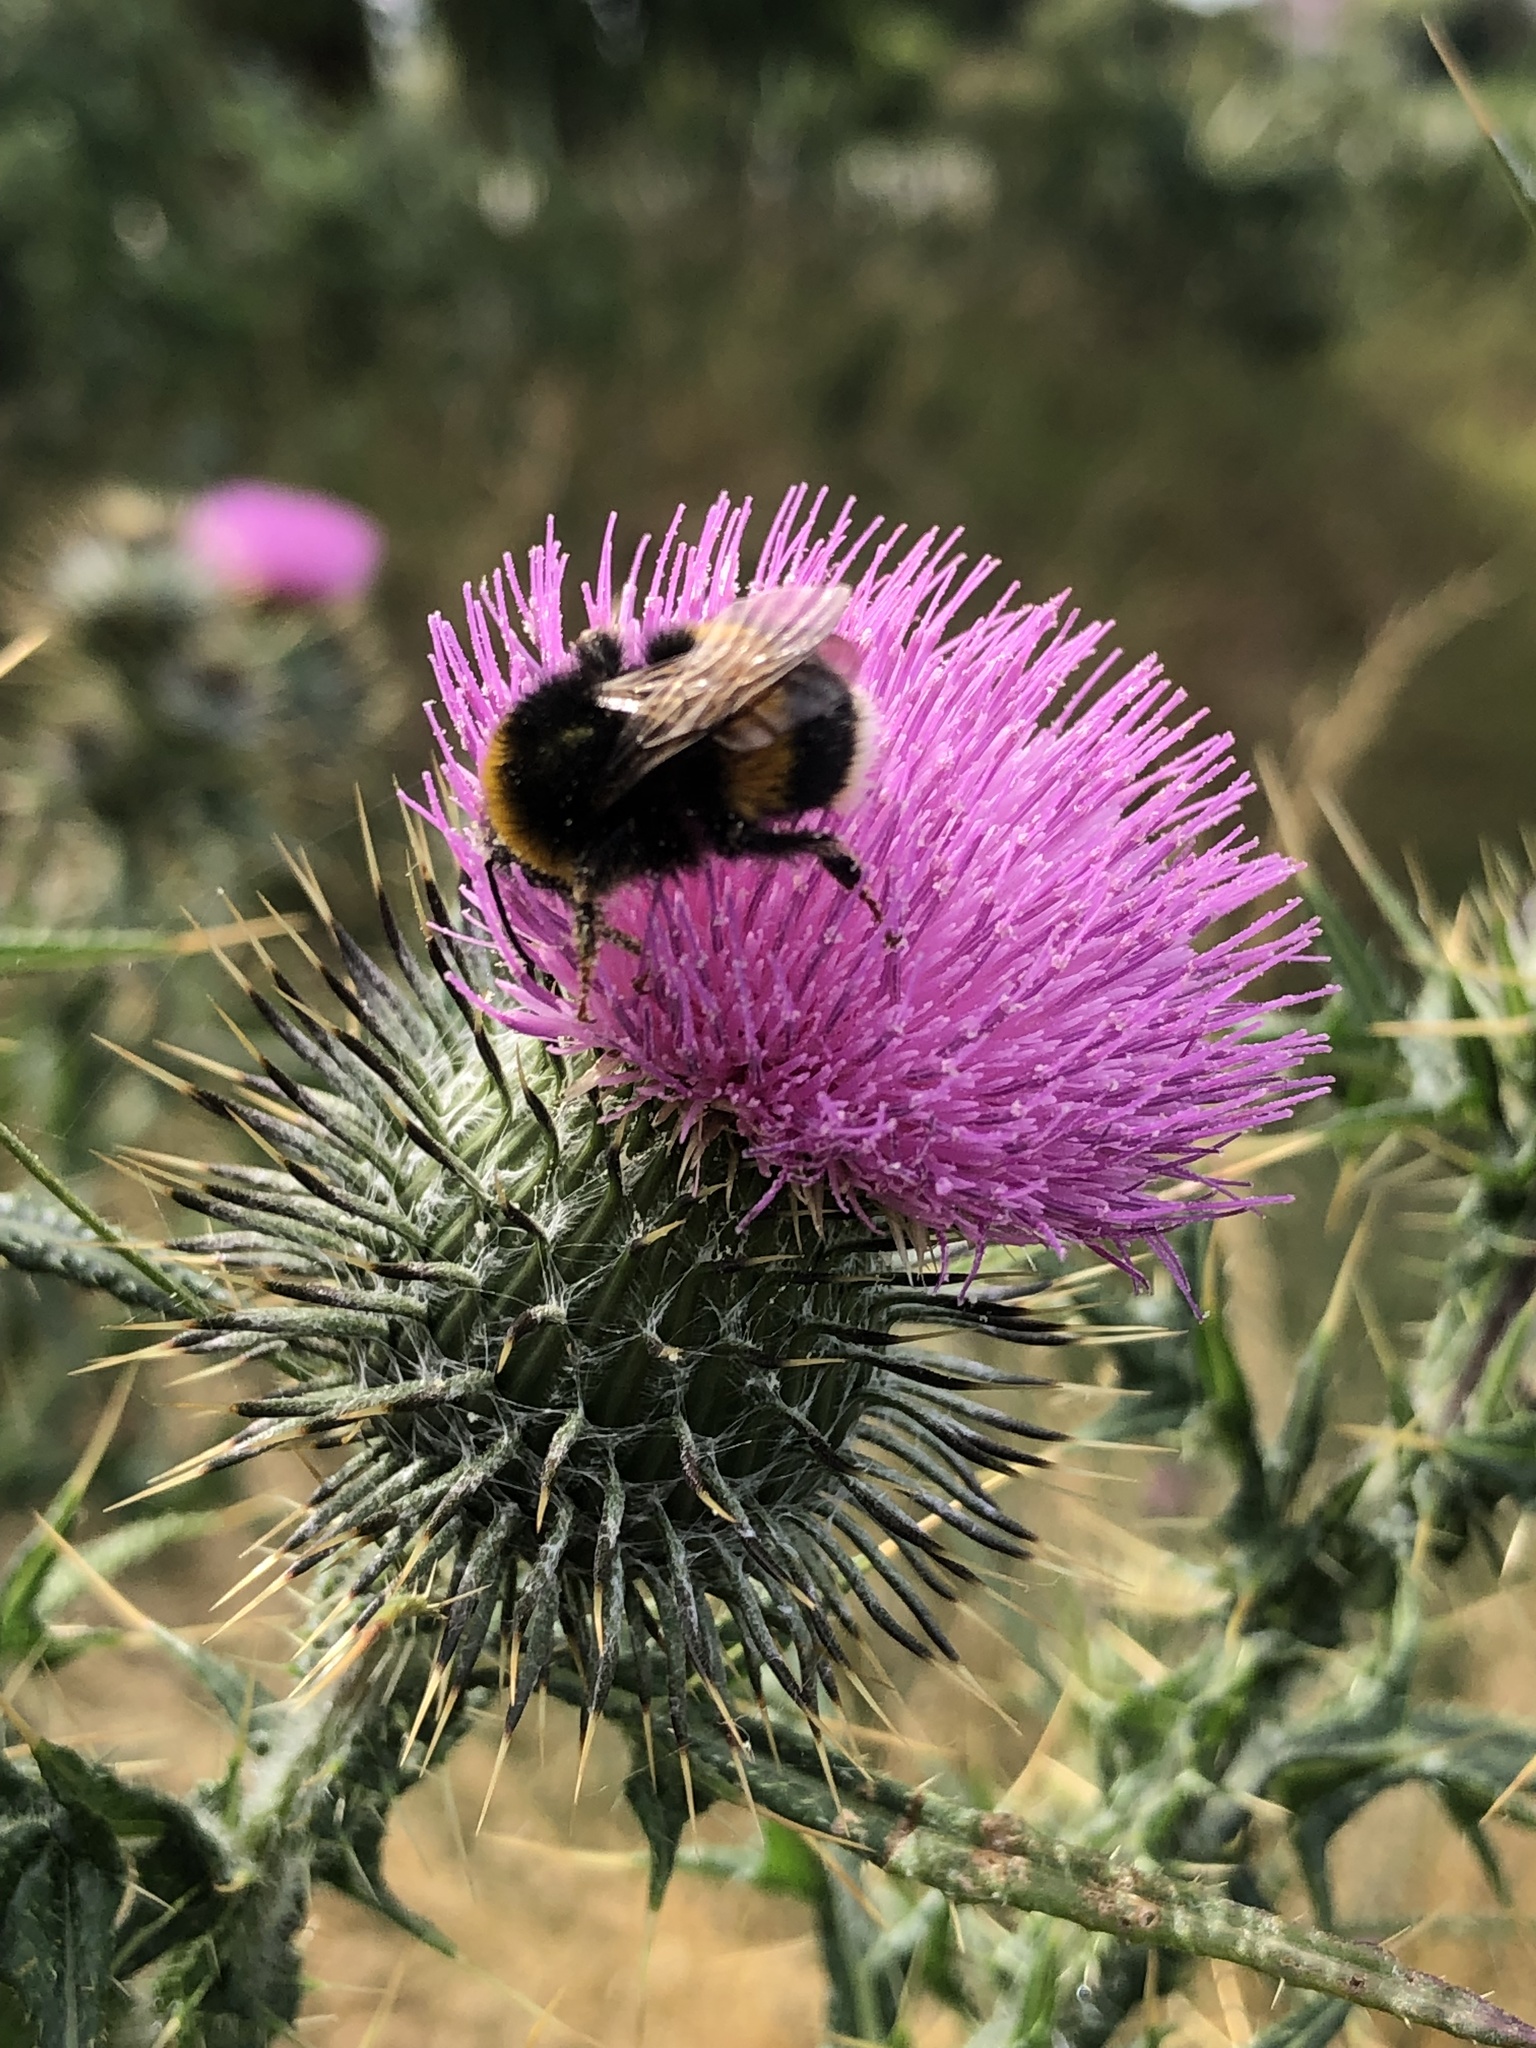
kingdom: Plantae
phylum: Tracheophyta
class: Magnoliopsida
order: Asterales
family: Asteraceae
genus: Cirsium
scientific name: Cirsium vulgare
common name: Bull thistle
